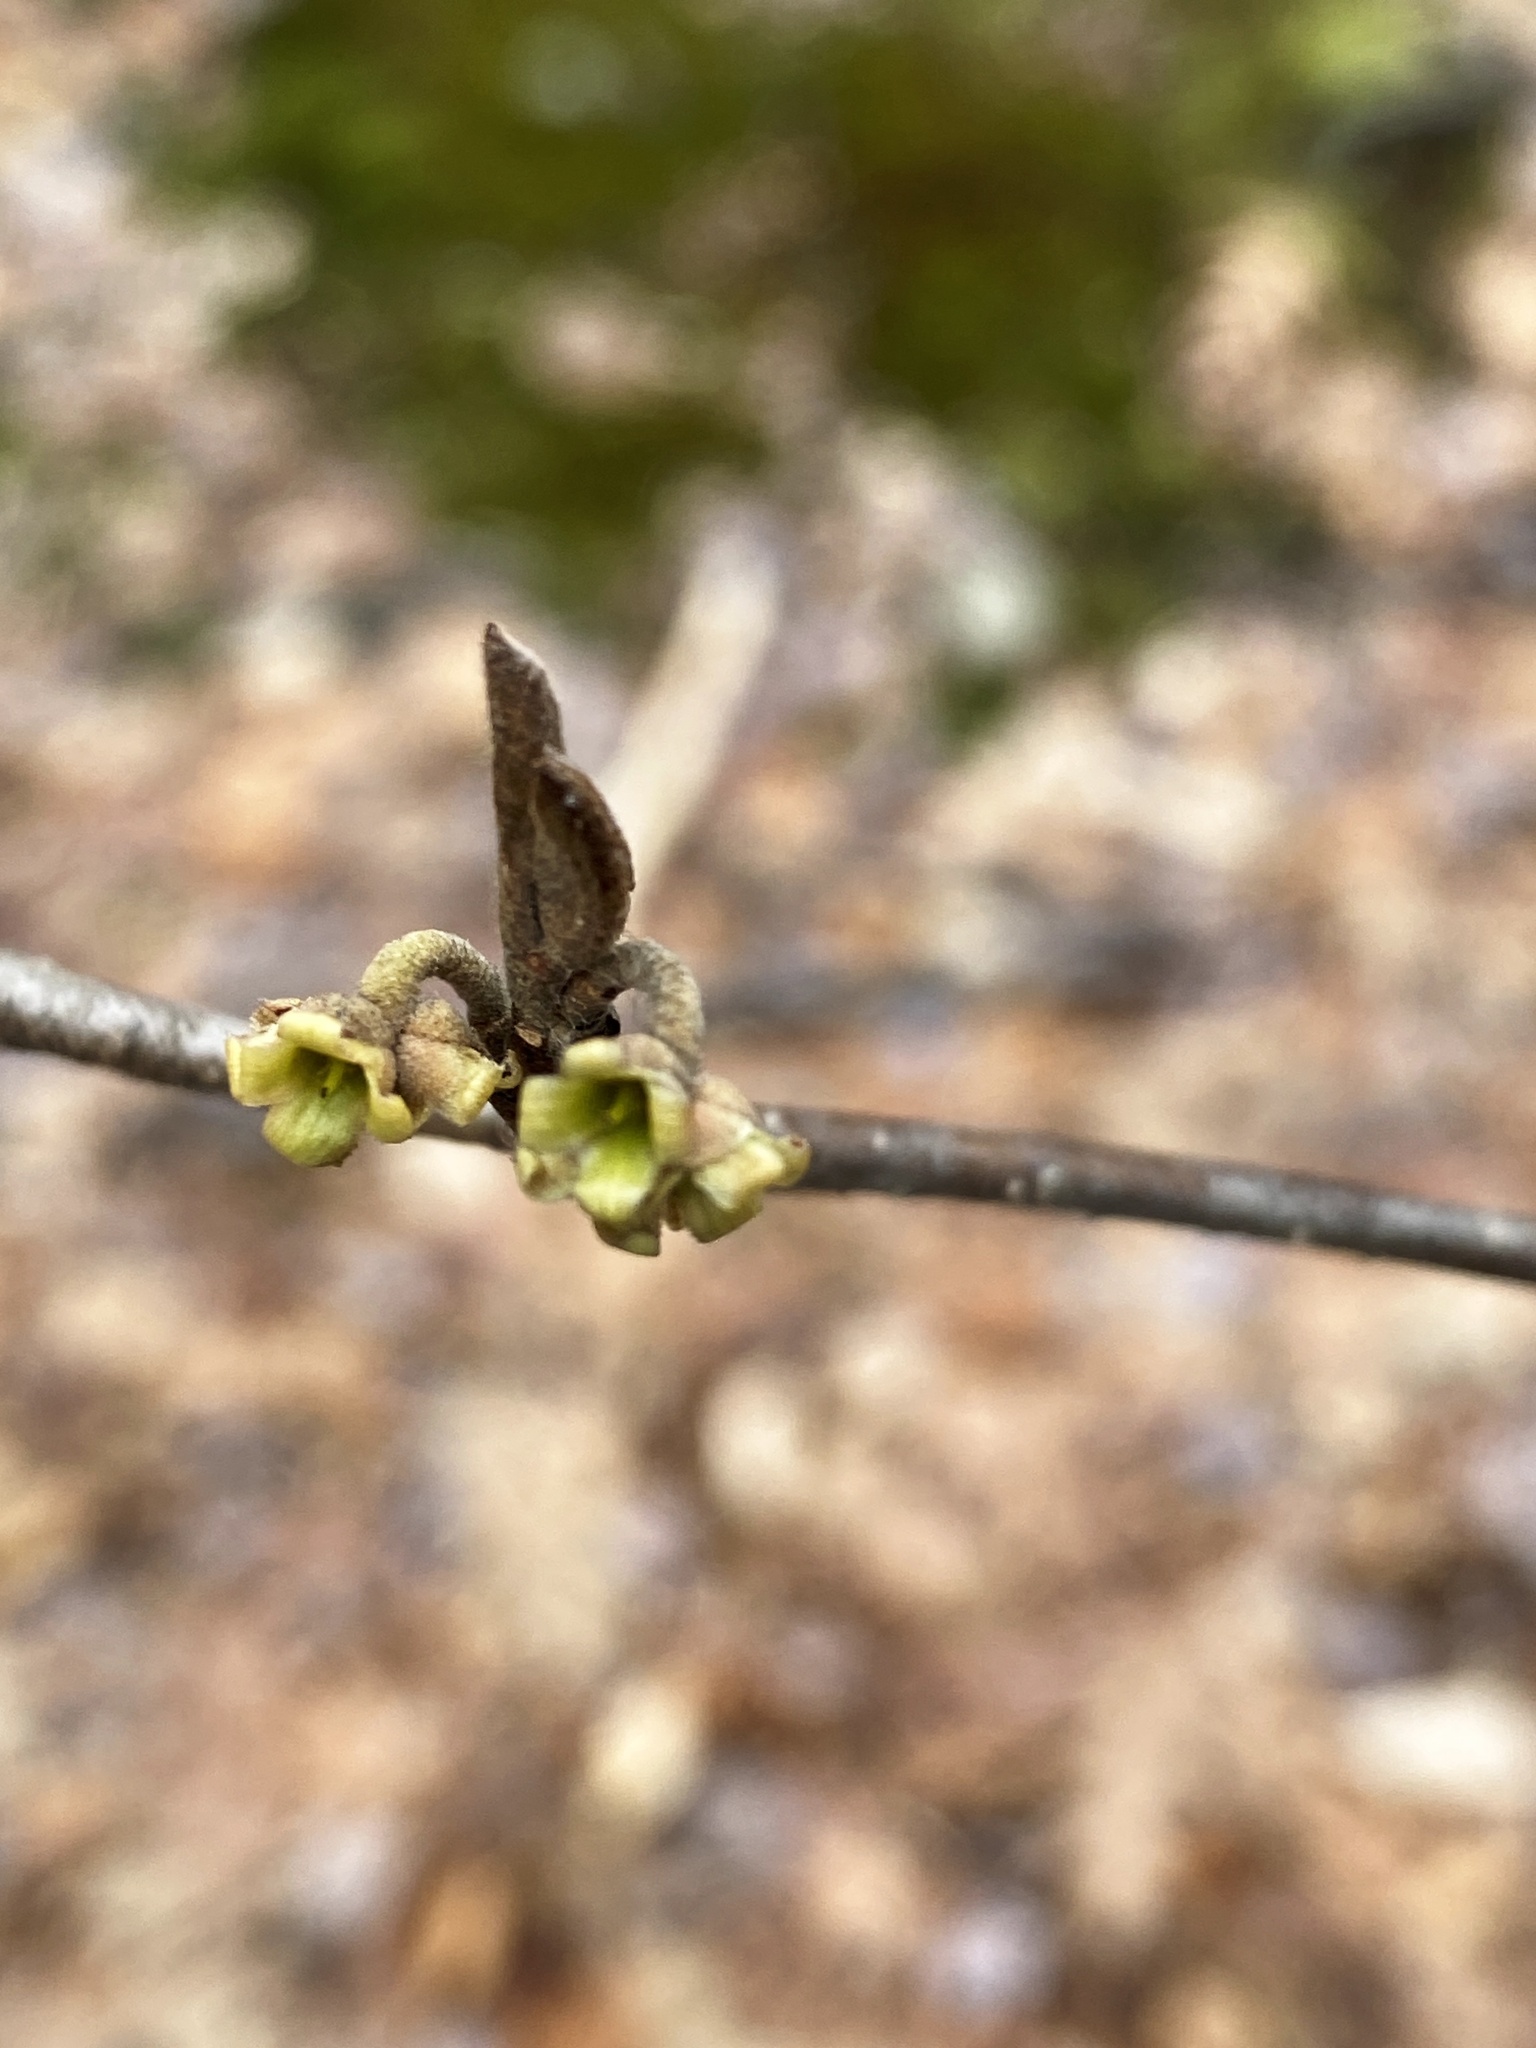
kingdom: Plantae
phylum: Tracheophyta
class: Magnoliopsida
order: Saxifragales
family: Hamamelidaceae
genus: Hamamelis
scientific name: Hamamelis virginiana
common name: Witch-hazel
